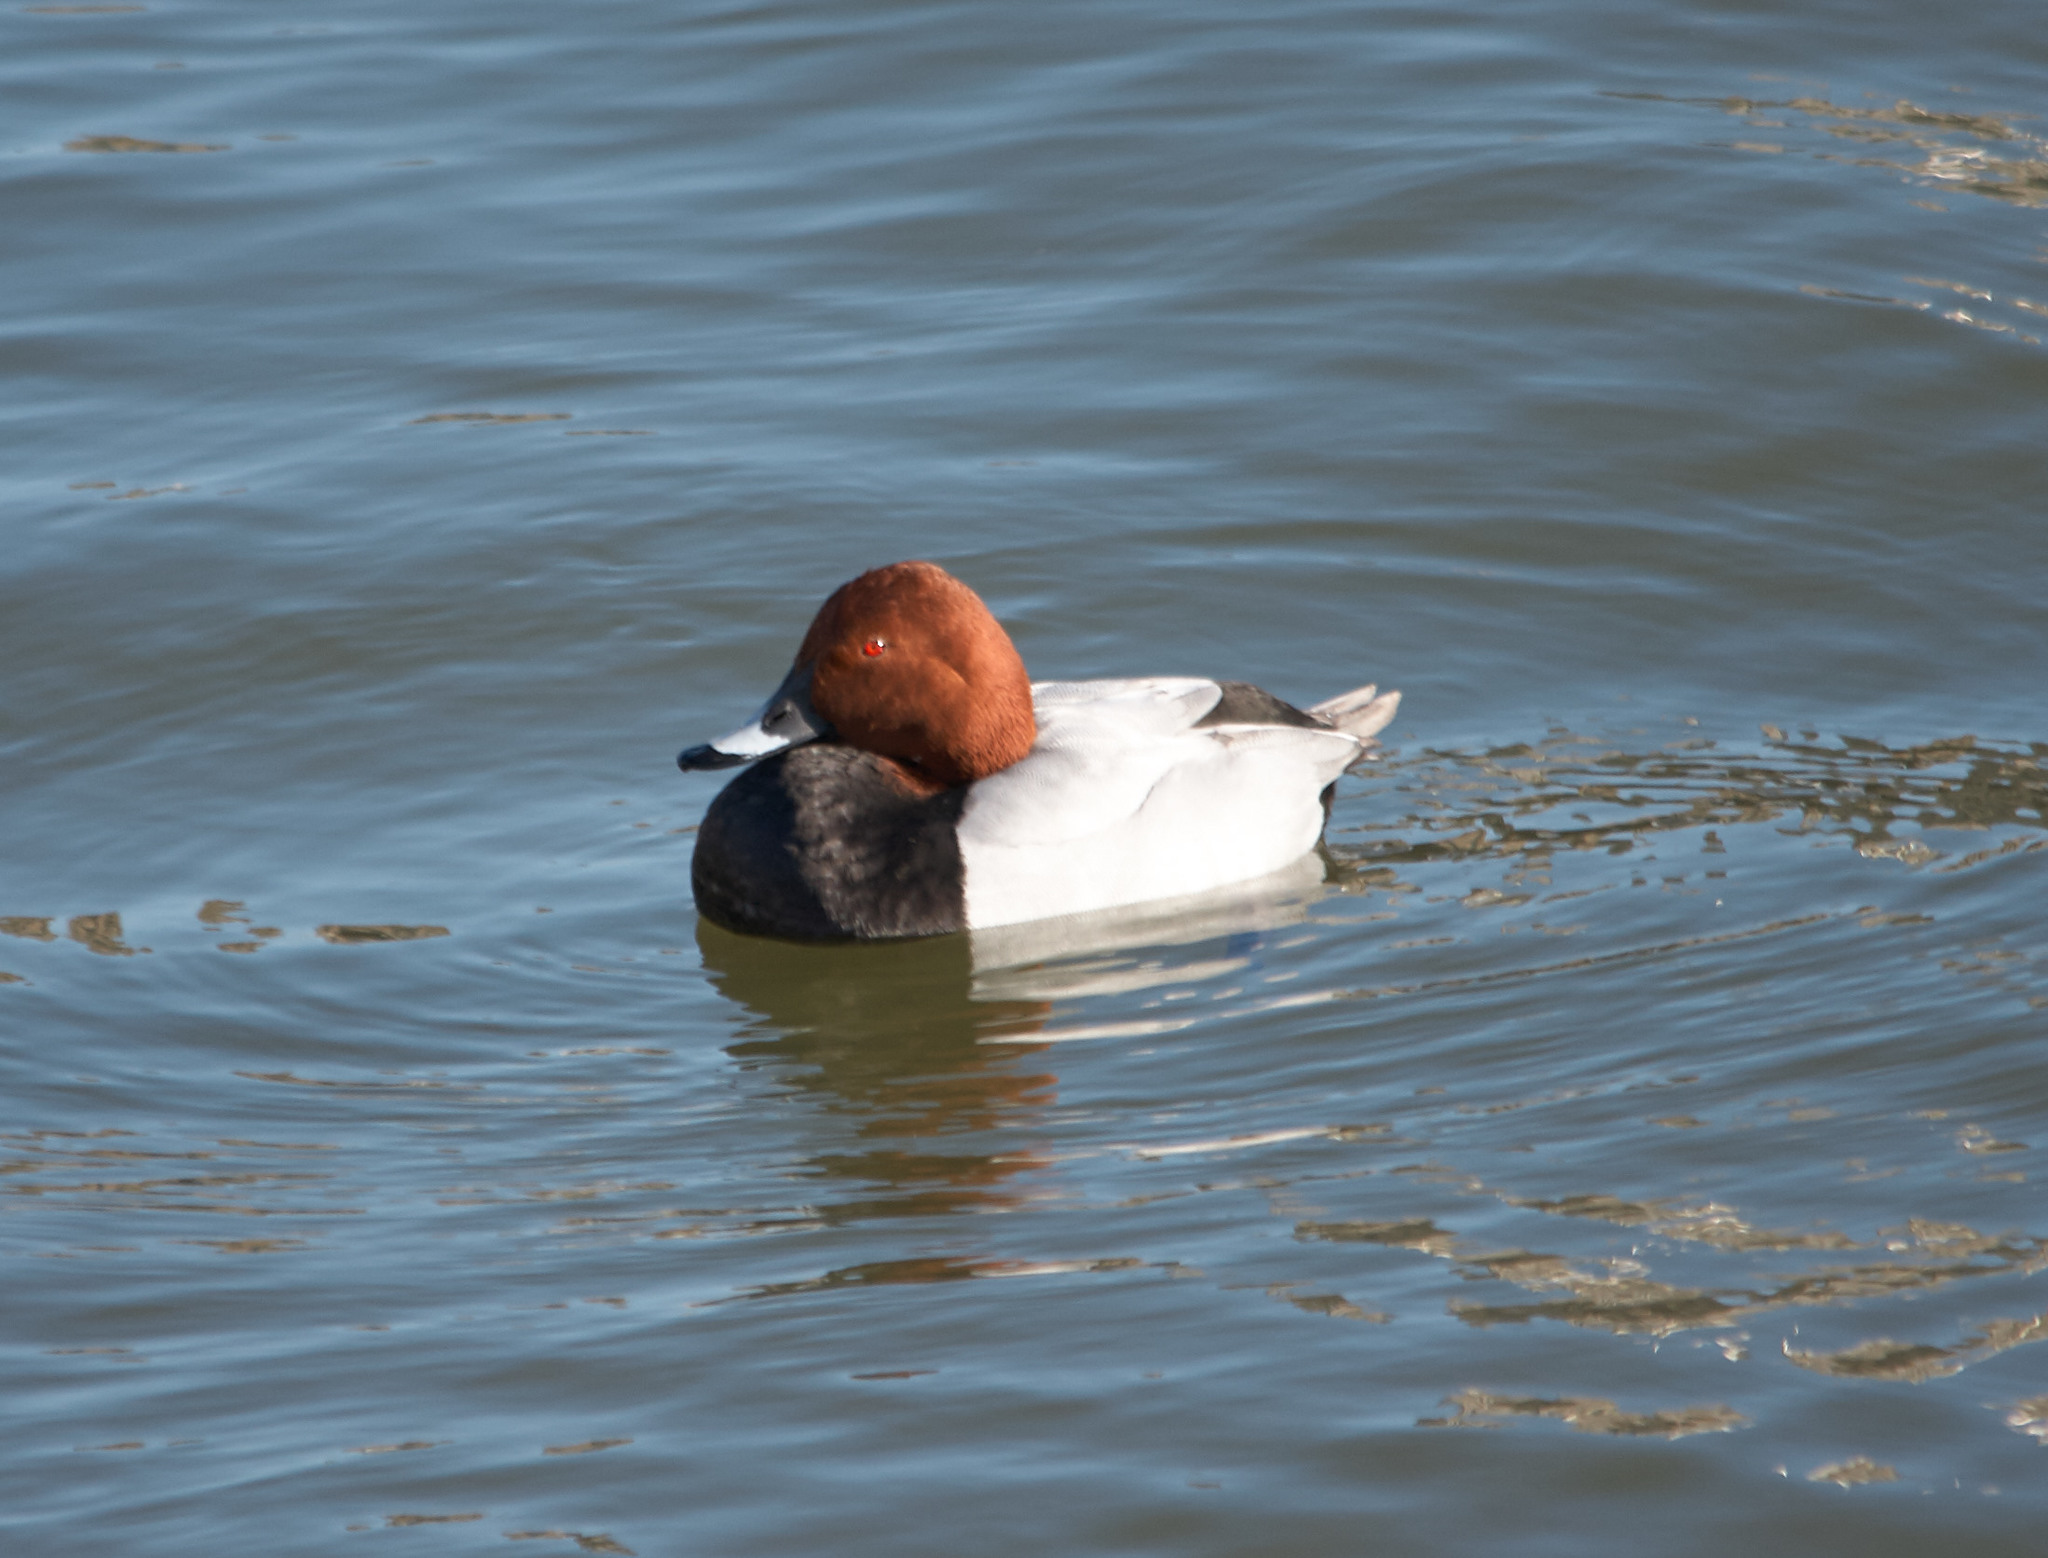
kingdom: Animalia
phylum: Chordata
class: Aves
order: Anseriformes
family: Anatidae
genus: Aythya
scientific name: Aythya ferina
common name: Common pochard
